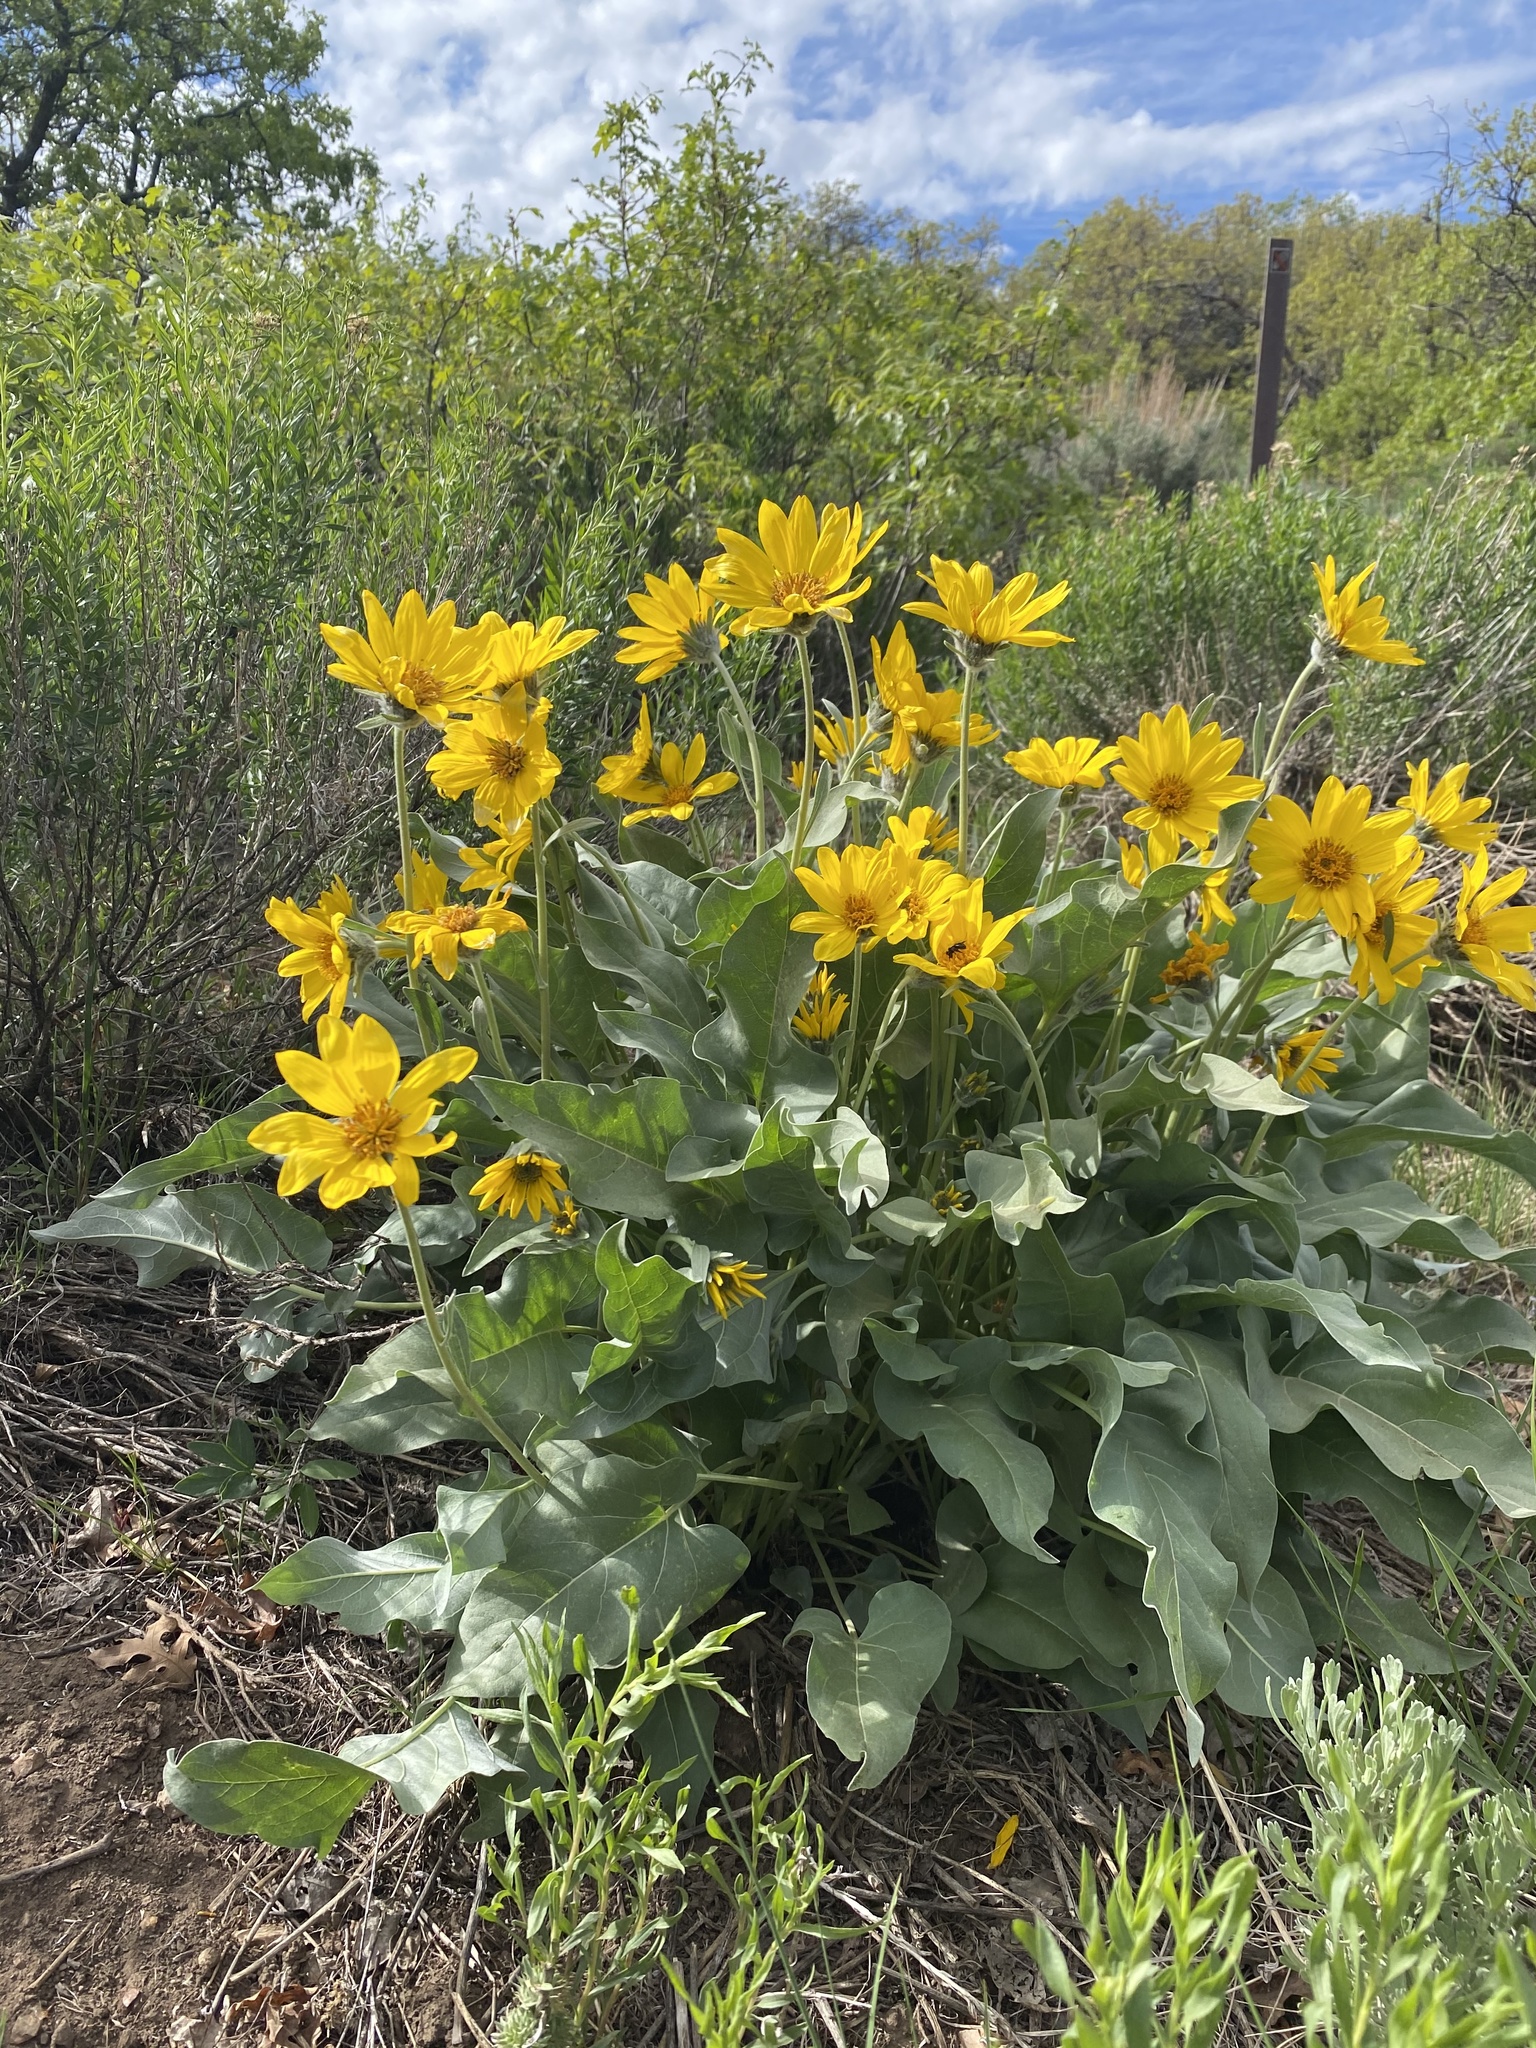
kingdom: Plantae
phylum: Tracheophyta
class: Magnoliopsida
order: Asterales
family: Asteraceae
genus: Wyethia
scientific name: Wyethia sagittata
